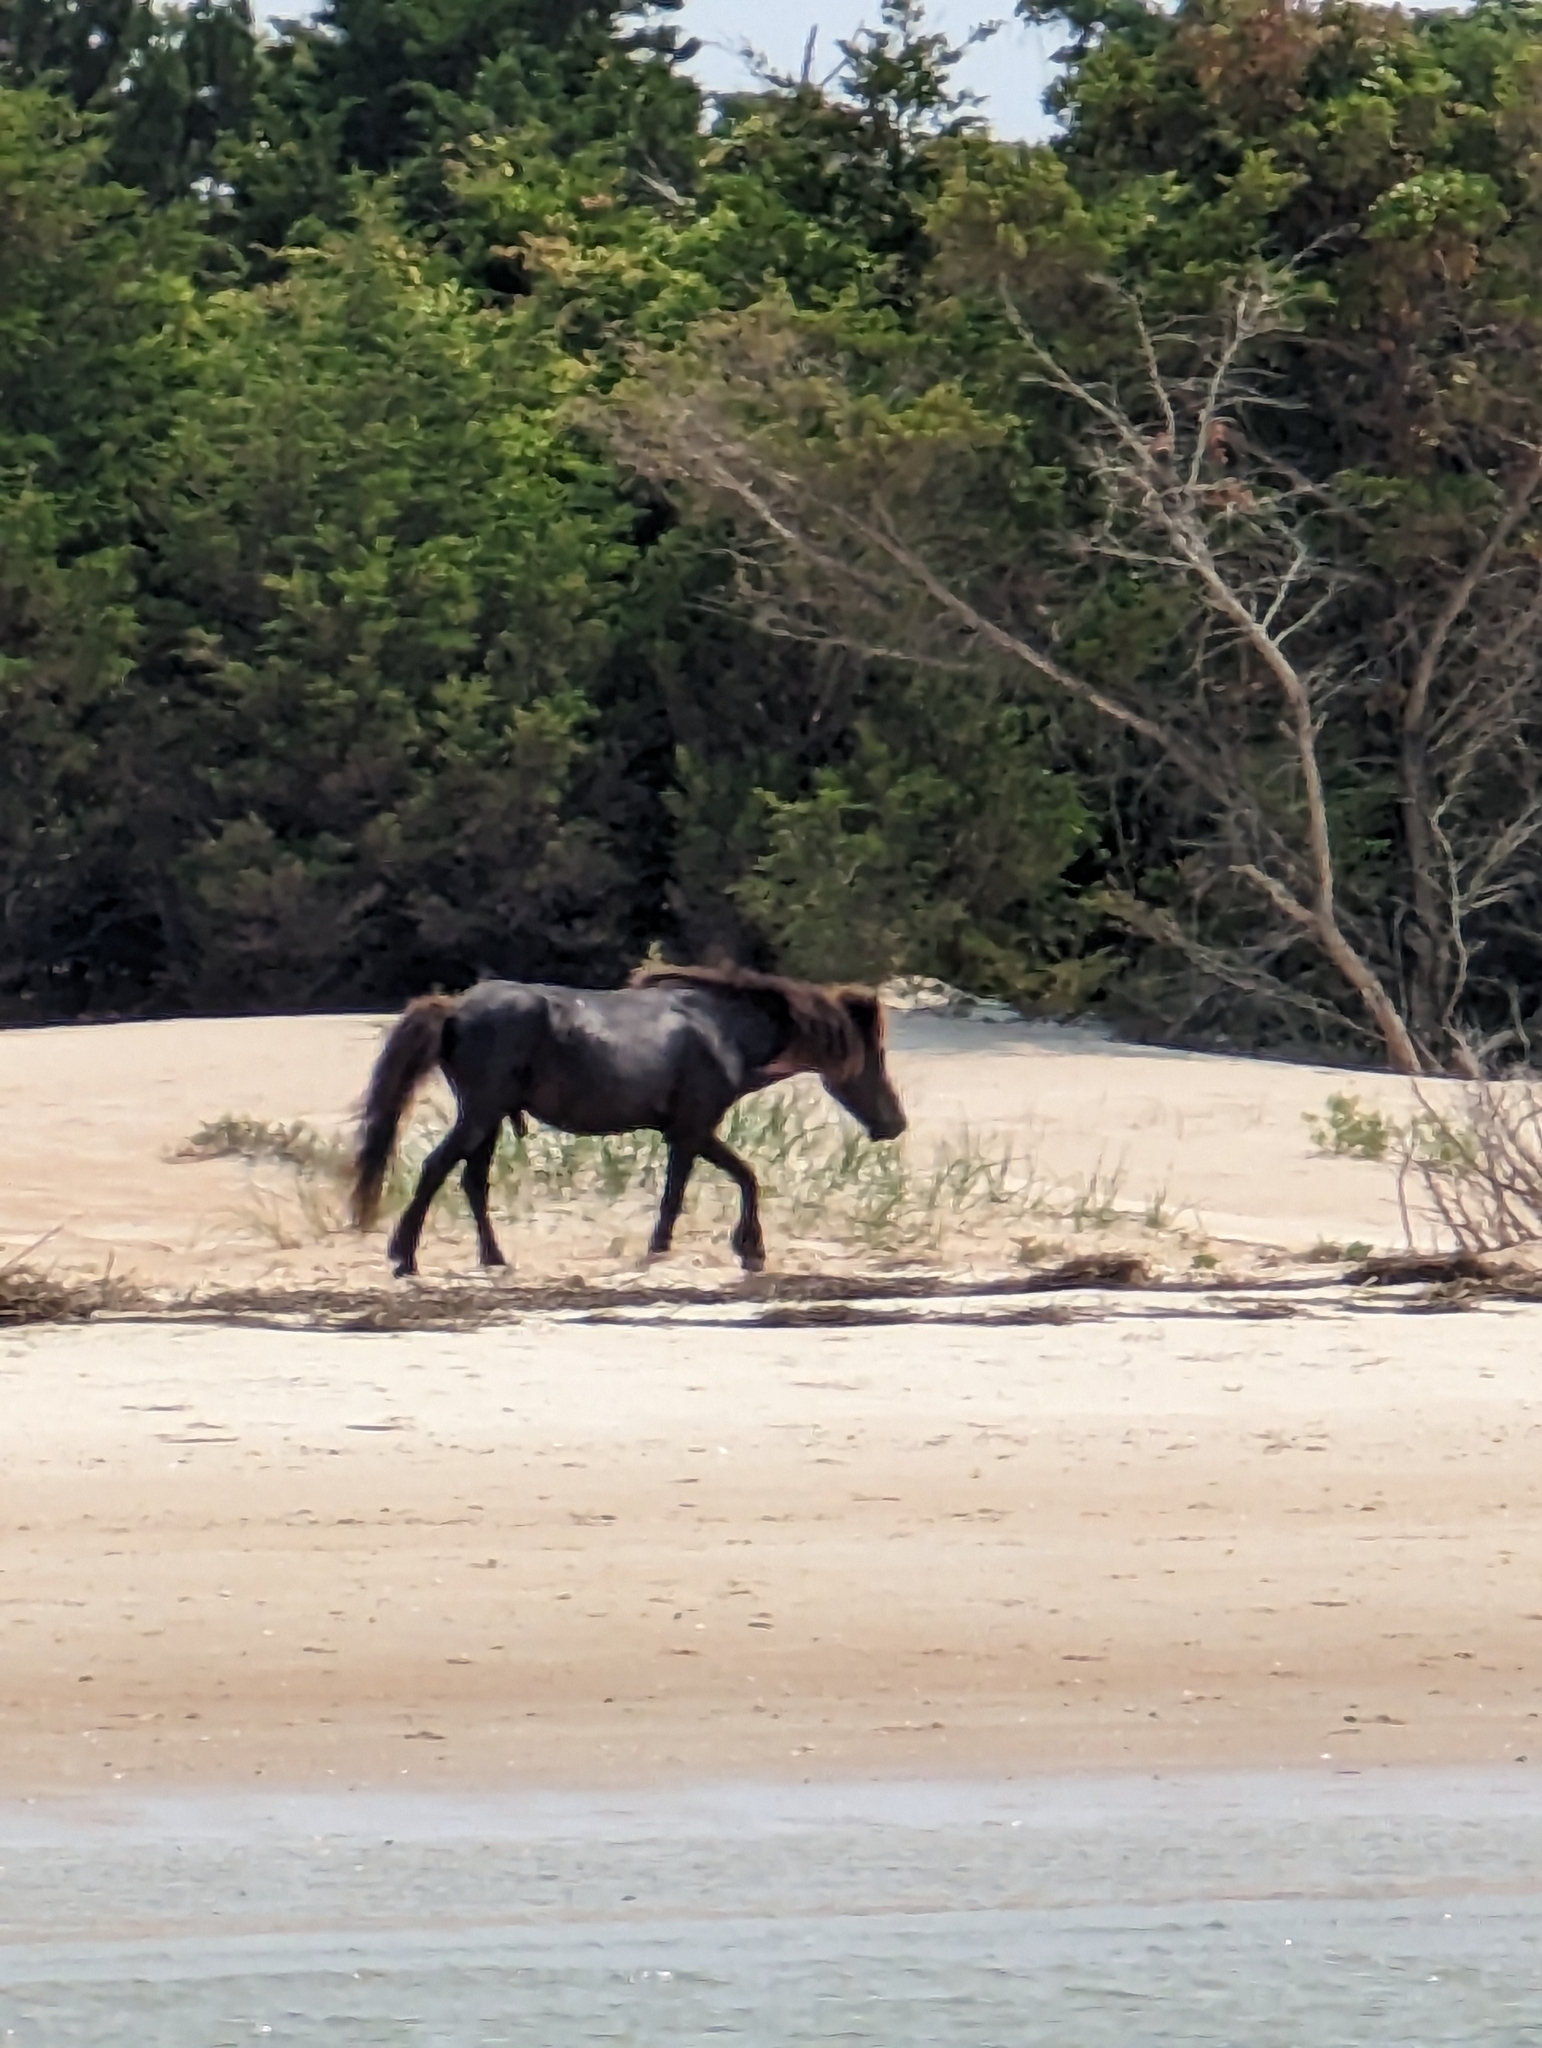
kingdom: Animalia
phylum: Chordata
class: Mammalia
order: Perissodactyla
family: Equidae
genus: Equus
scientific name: Equus caballus
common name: Horse
